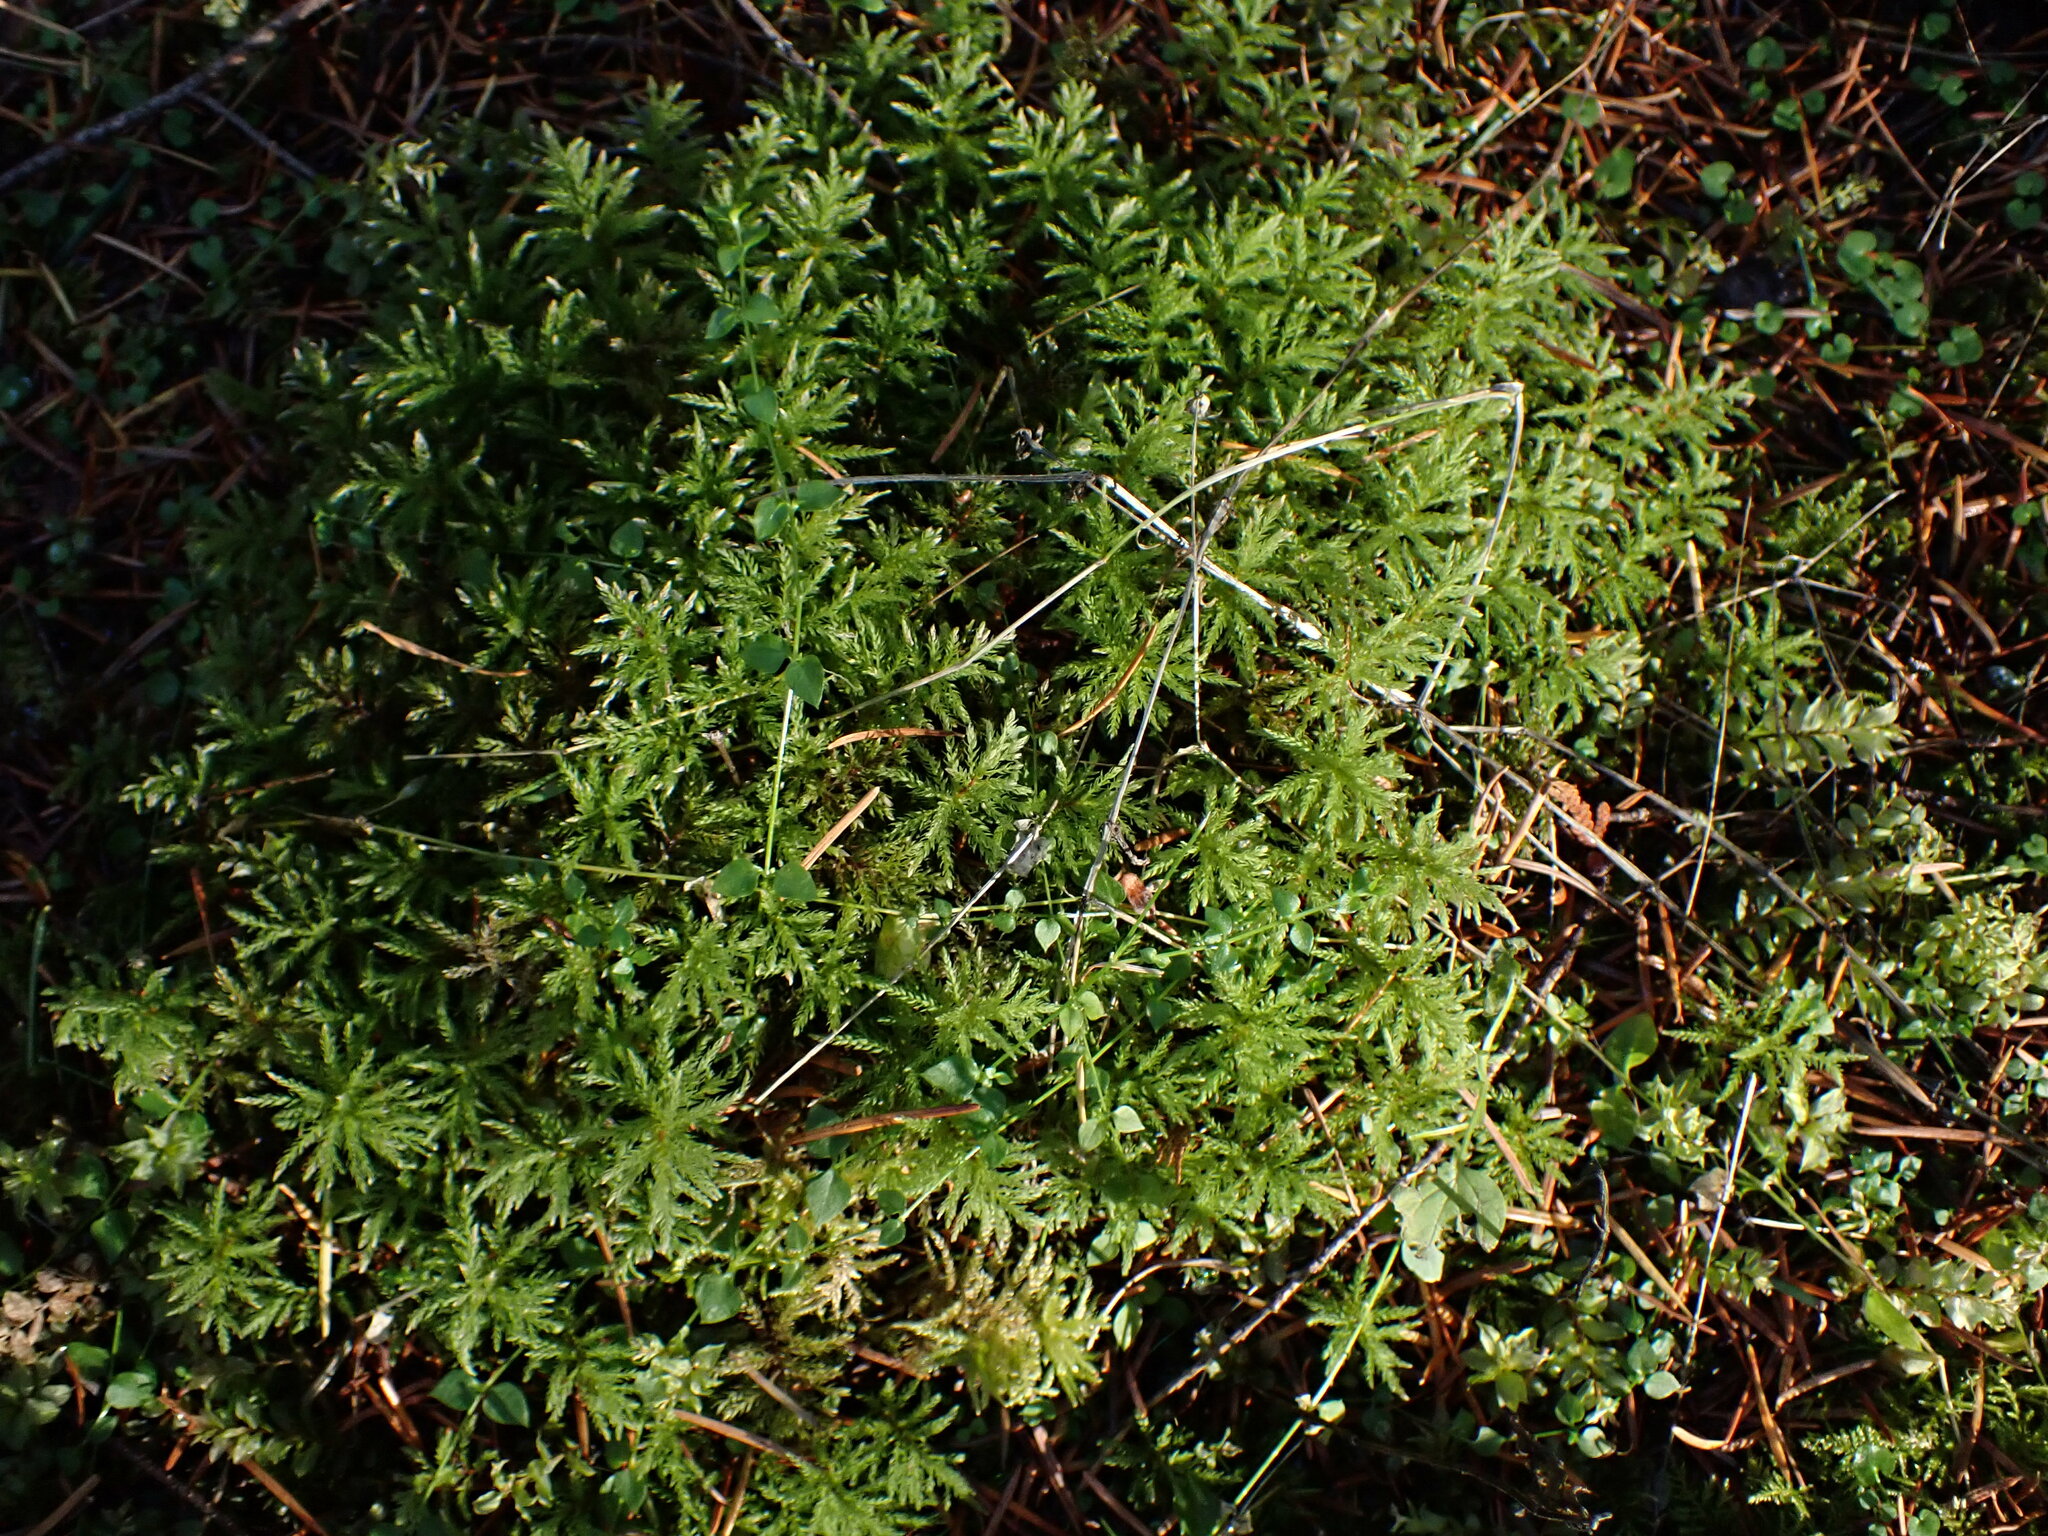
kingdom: Plantae
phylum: Bryophyta
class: Bryopsida
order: Bryales
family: Mniaceae
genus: Leucolepis
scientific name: Leucolepis acanthoneura
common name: Leucolepis umbrella moss
